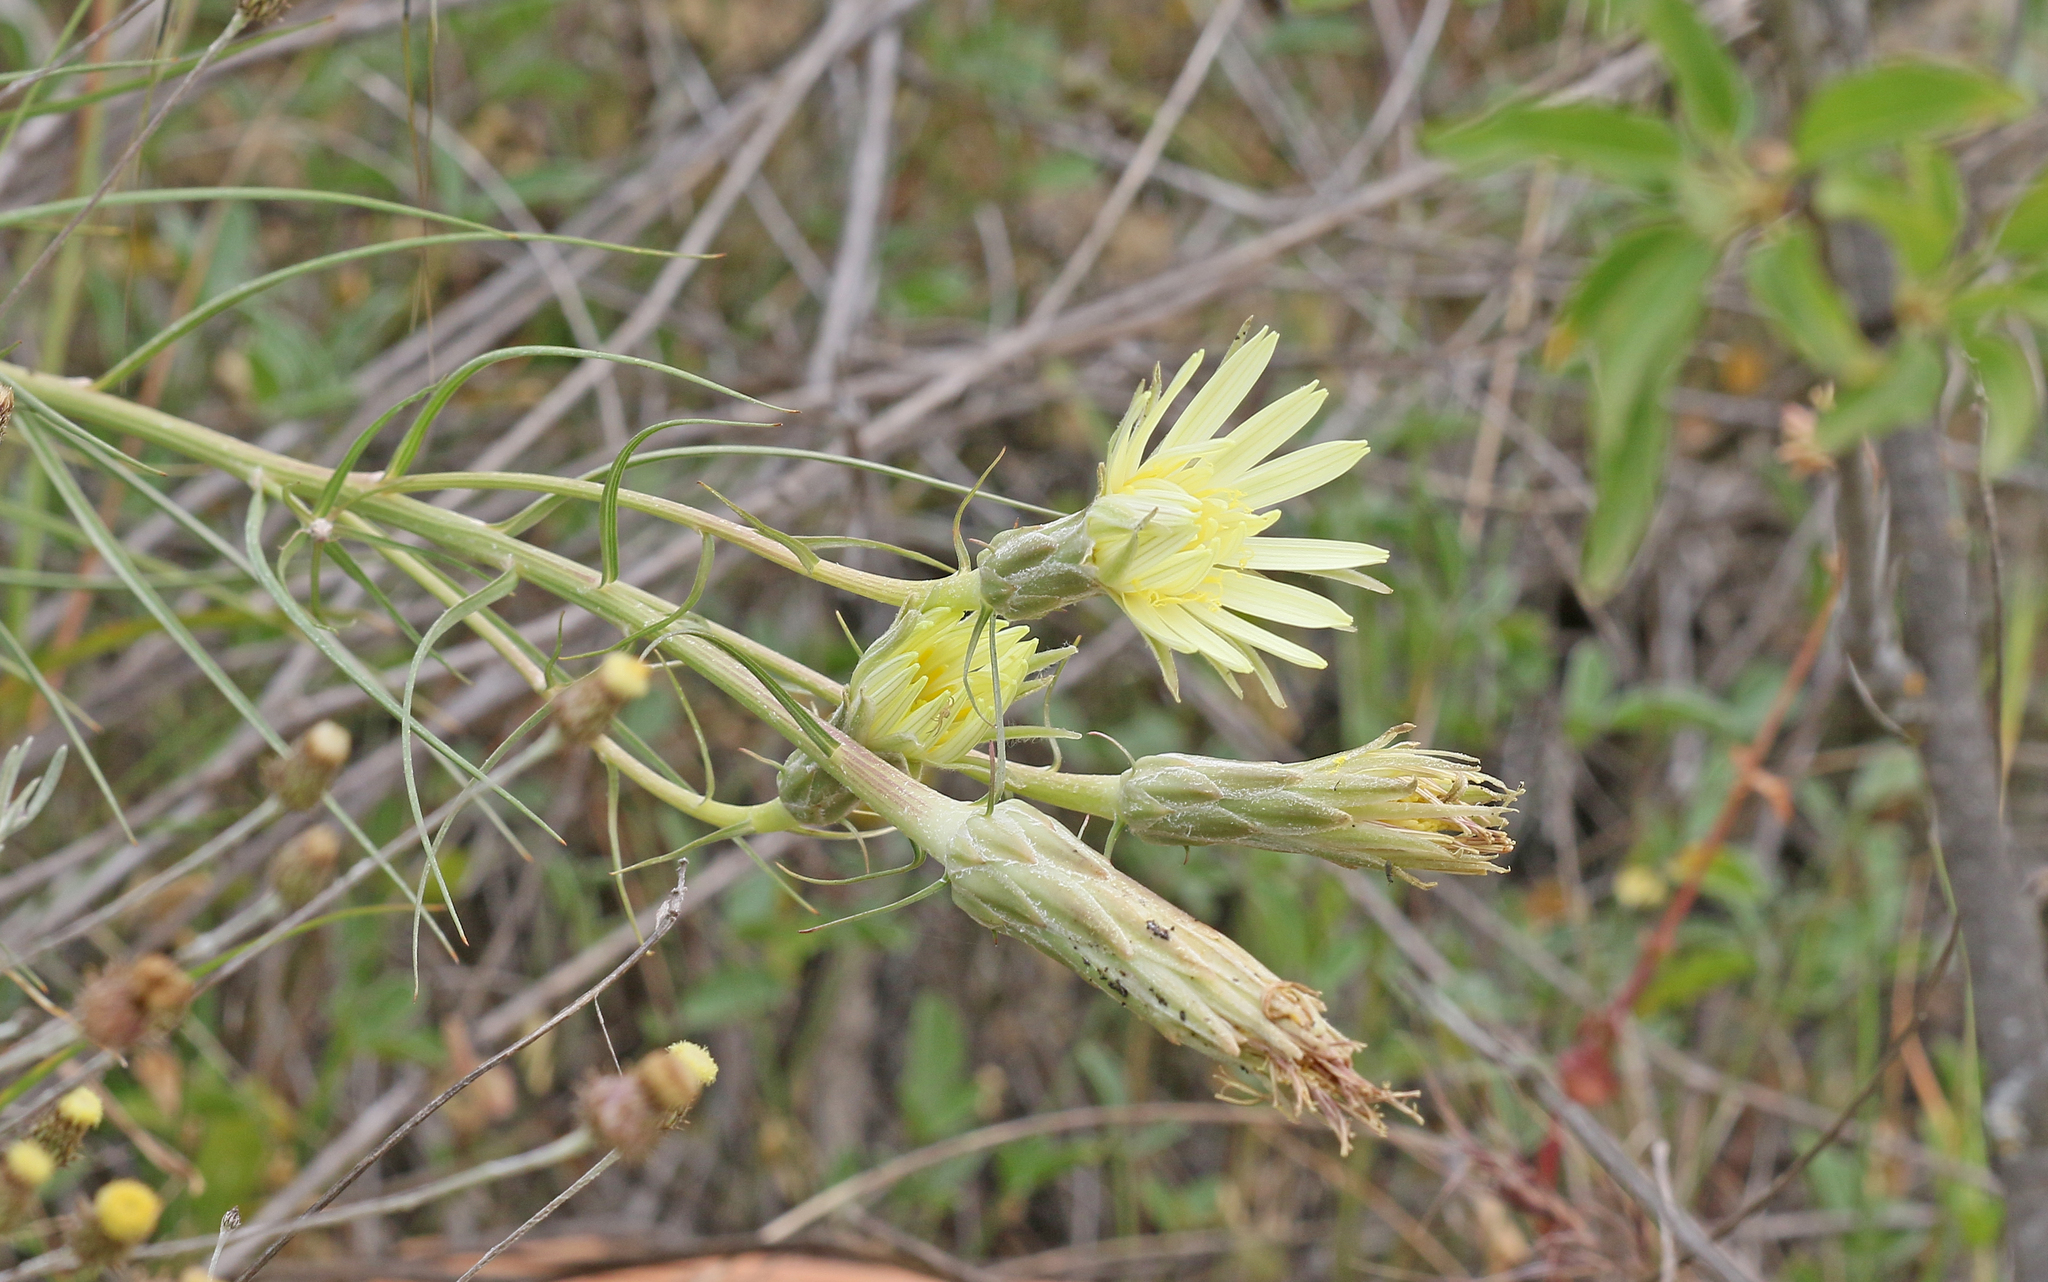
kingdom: Plantae
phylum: Tracheophyta
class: Magnoliopsida
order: Asterales
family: Asteraceae
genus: Scorzonera
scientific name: Scorzonera angustifolia
